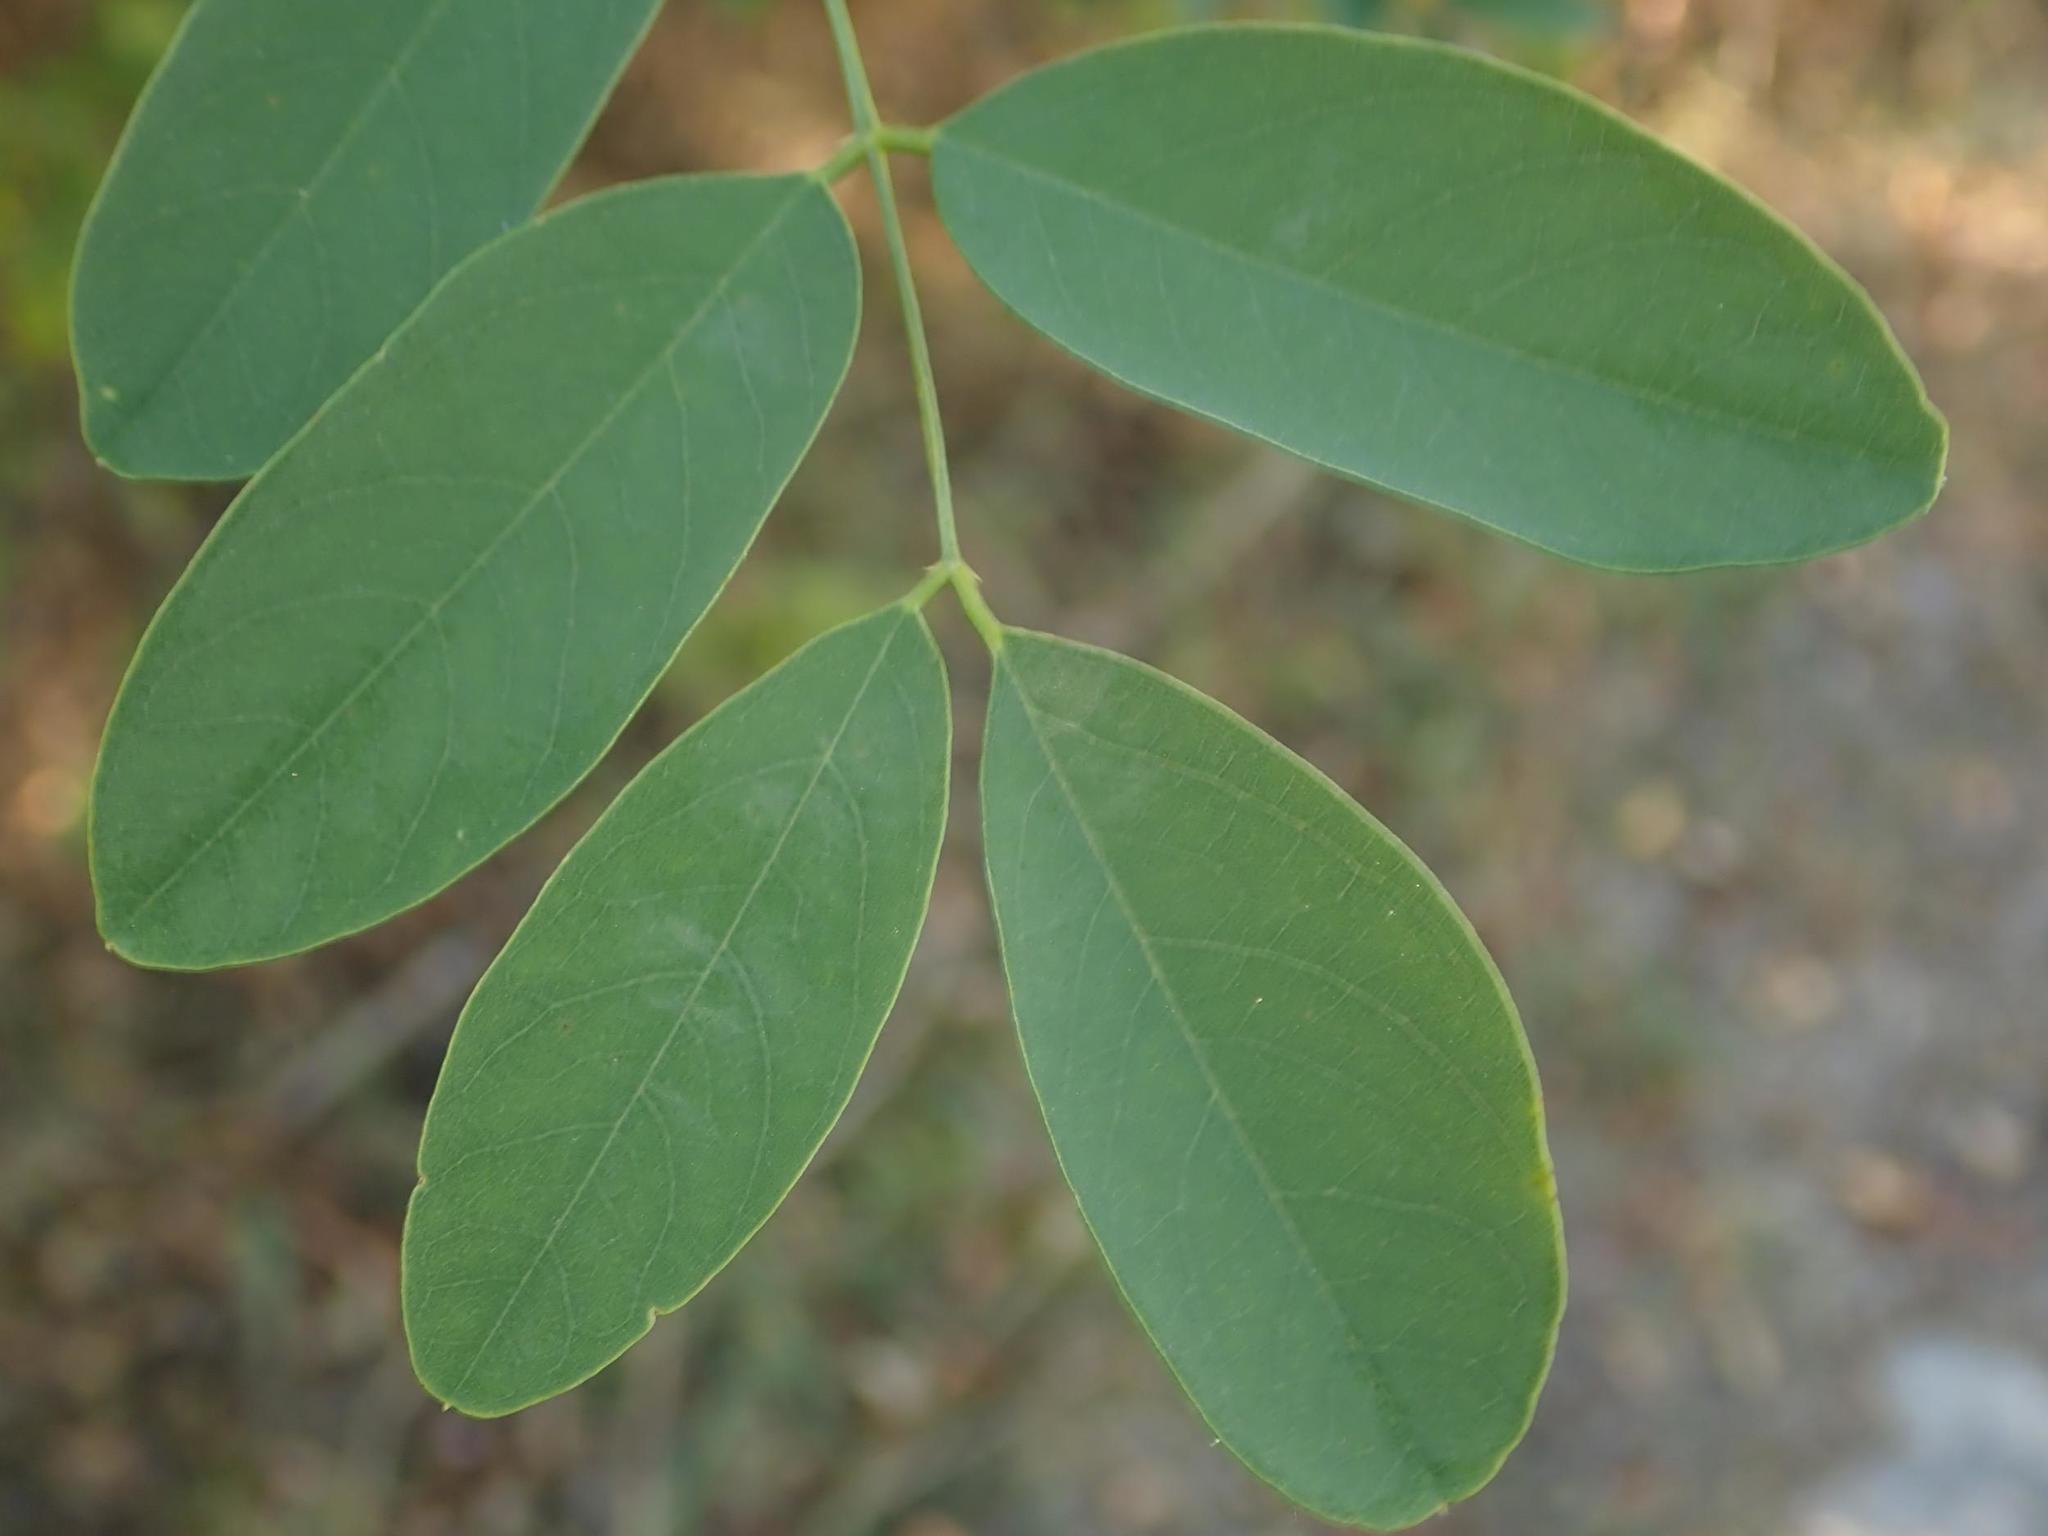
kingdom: Plantae
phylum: Tracheophyta
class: Magnoliopsida
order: Fabales
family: Fabaceae
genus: Robinia
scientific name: Robinia pseudoacacia
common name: Black locust
